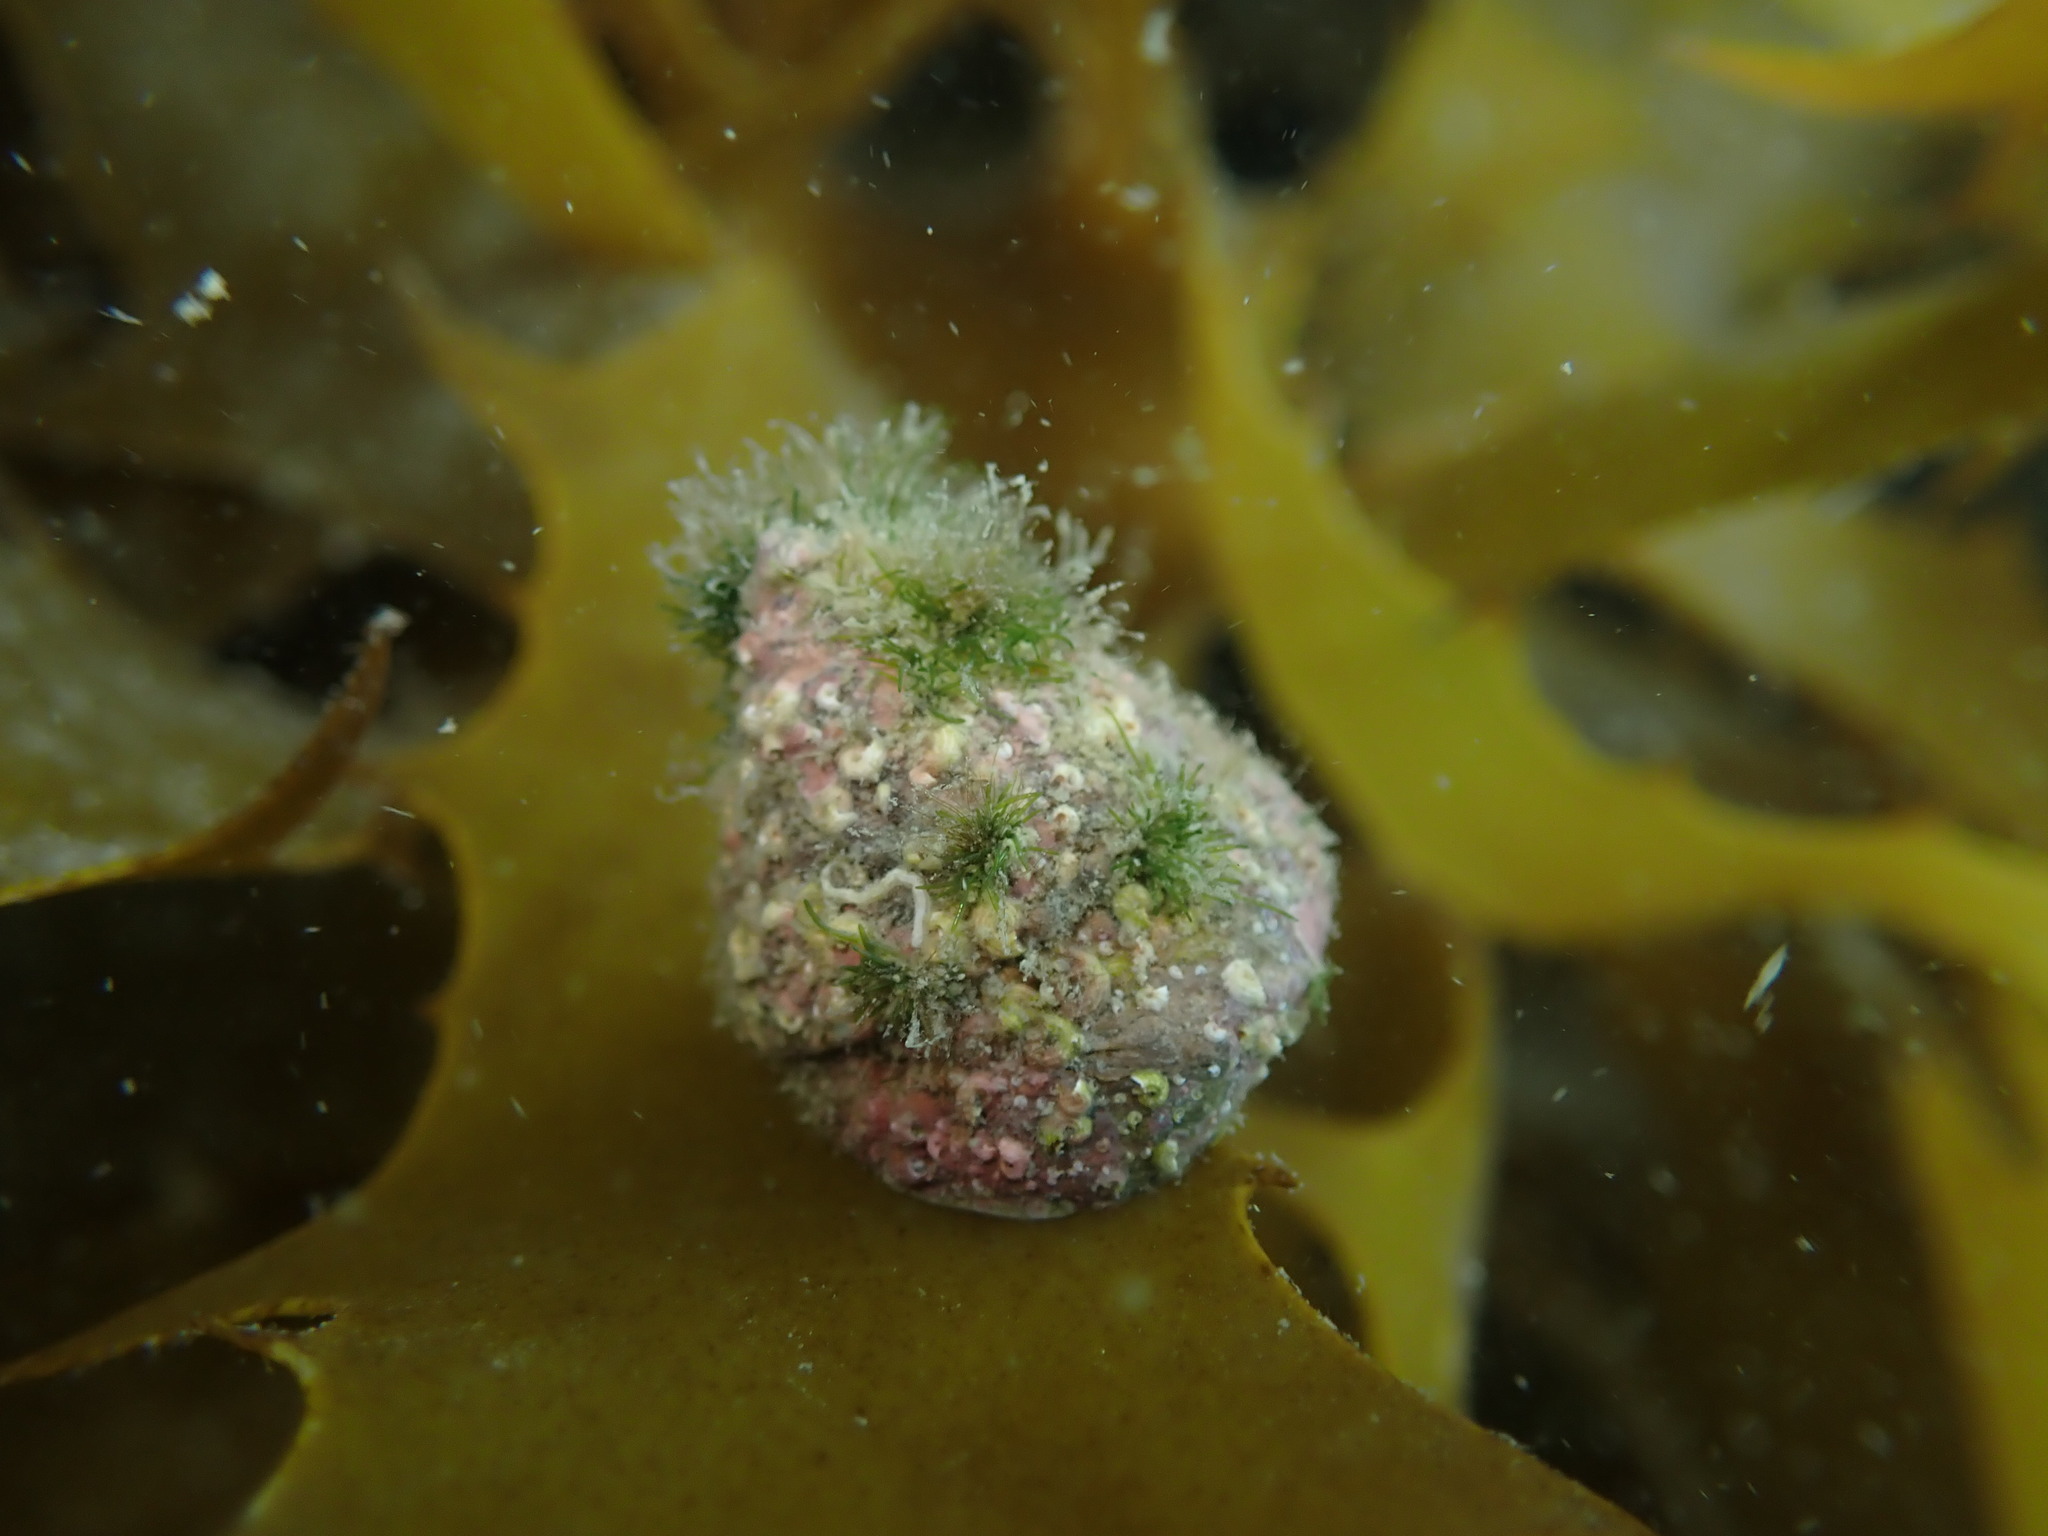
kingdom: Animalia
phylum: Mollusca
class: Gastropoda
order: Trochida
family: Trochidae
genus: Coelotrochus
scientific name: Coelotrochus viridis
